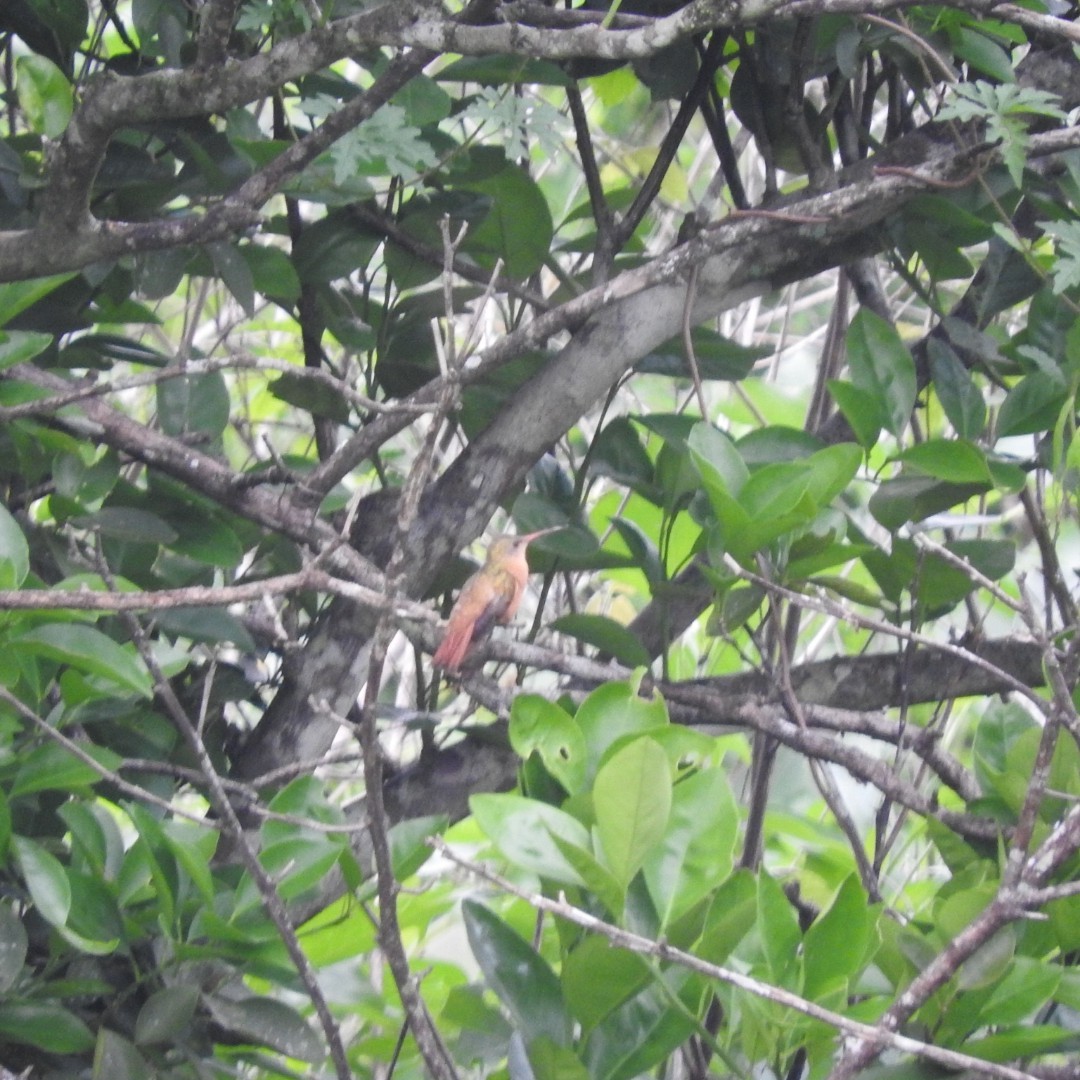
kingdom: Animalia
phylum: Chordata
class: Aves
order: Apodiformes
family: Trochilidae
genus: Amazilia
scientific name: Amazilia rutila
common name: Cinnamon hummingbird
